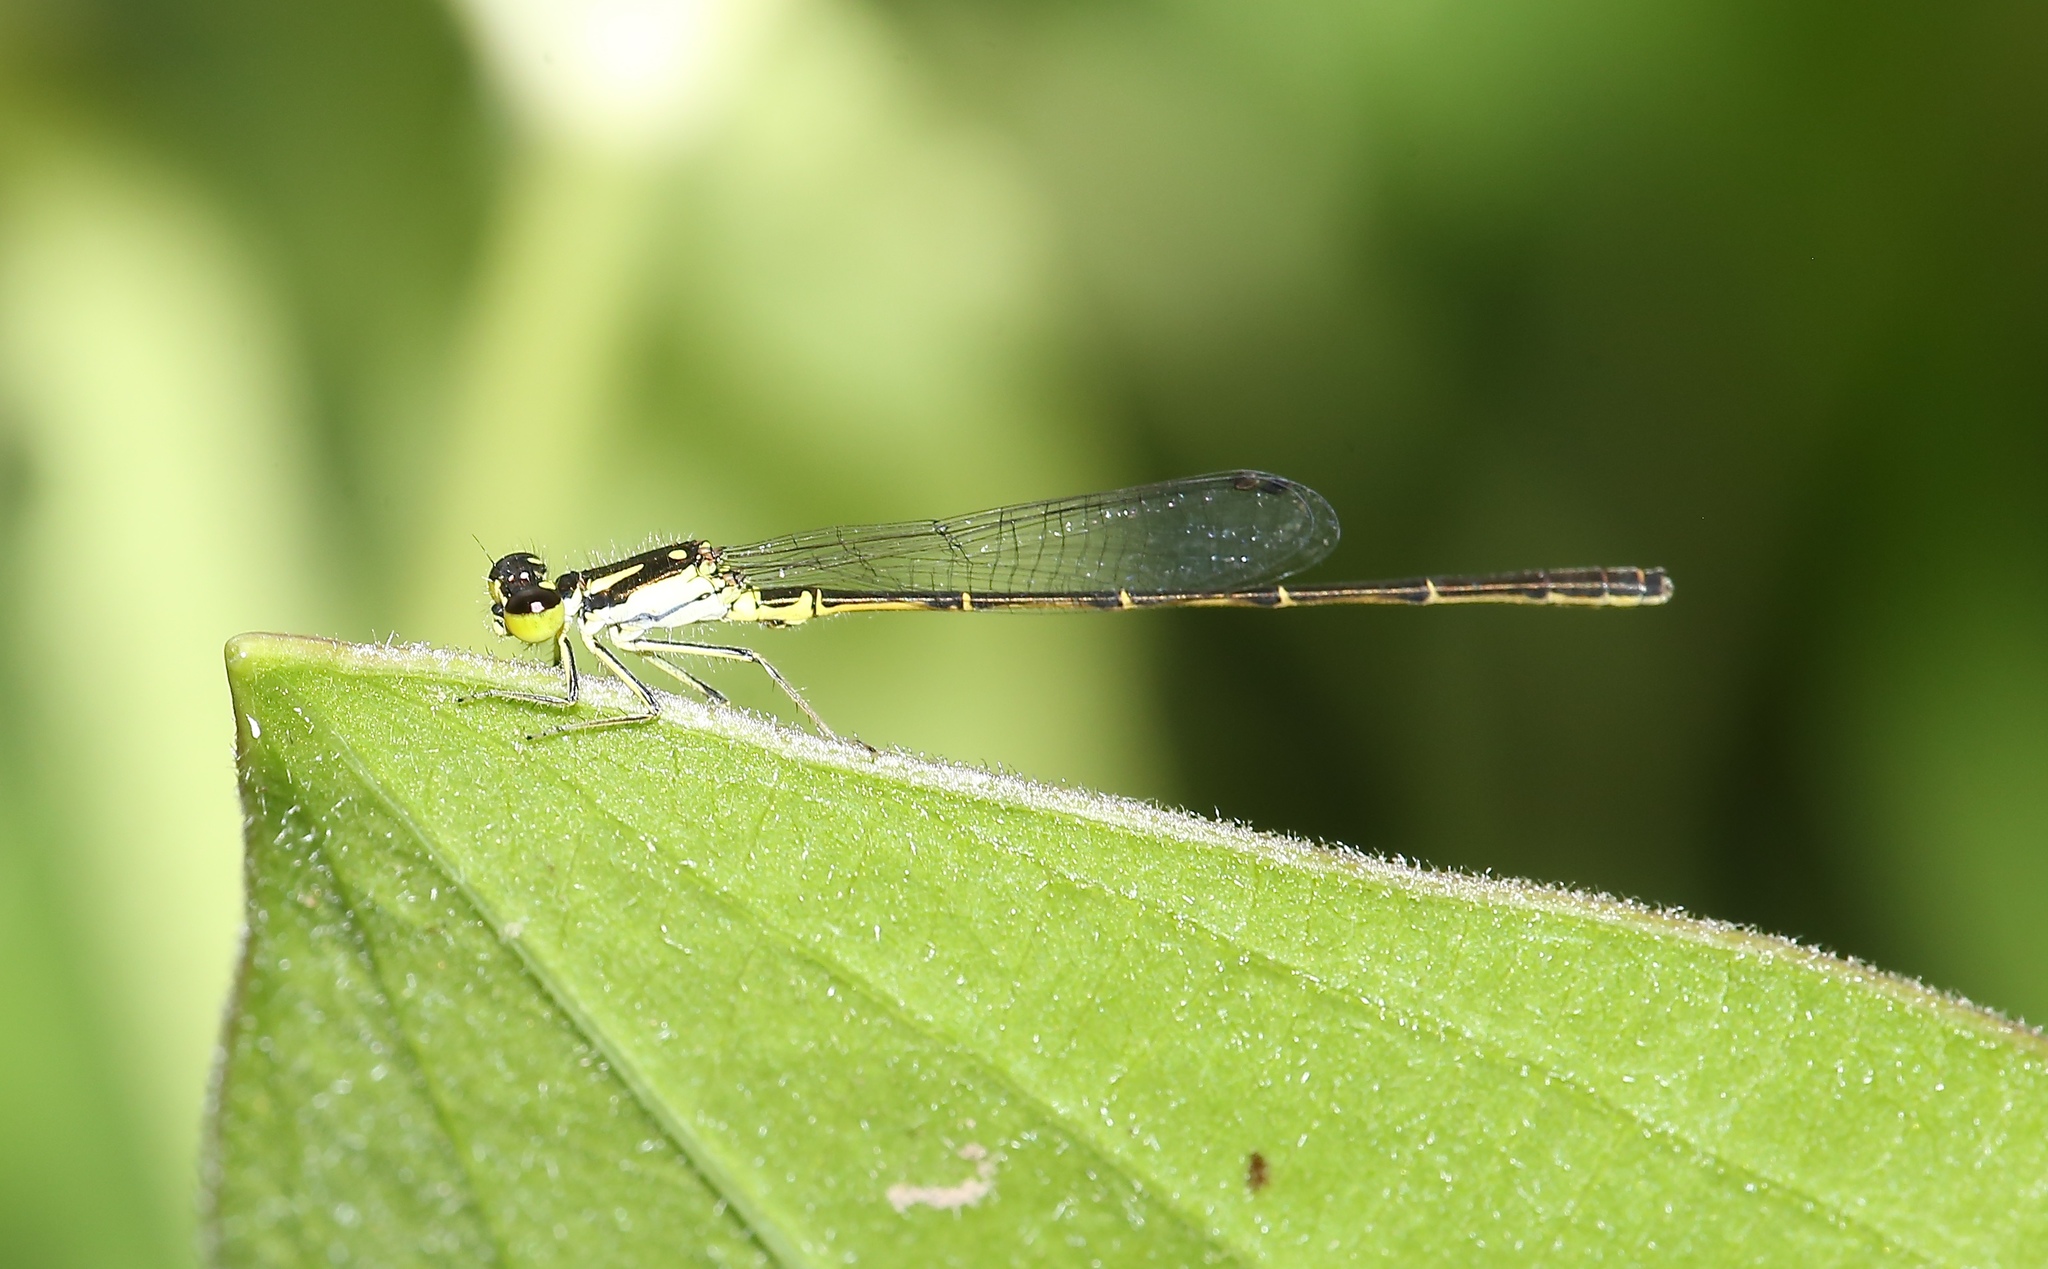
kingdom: Animalia
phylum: Arthropoda
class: Insecta
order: Odonata
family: Coenagrionidae
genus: Ischnura
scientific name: Ischnura posita
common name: Fragile forktail
